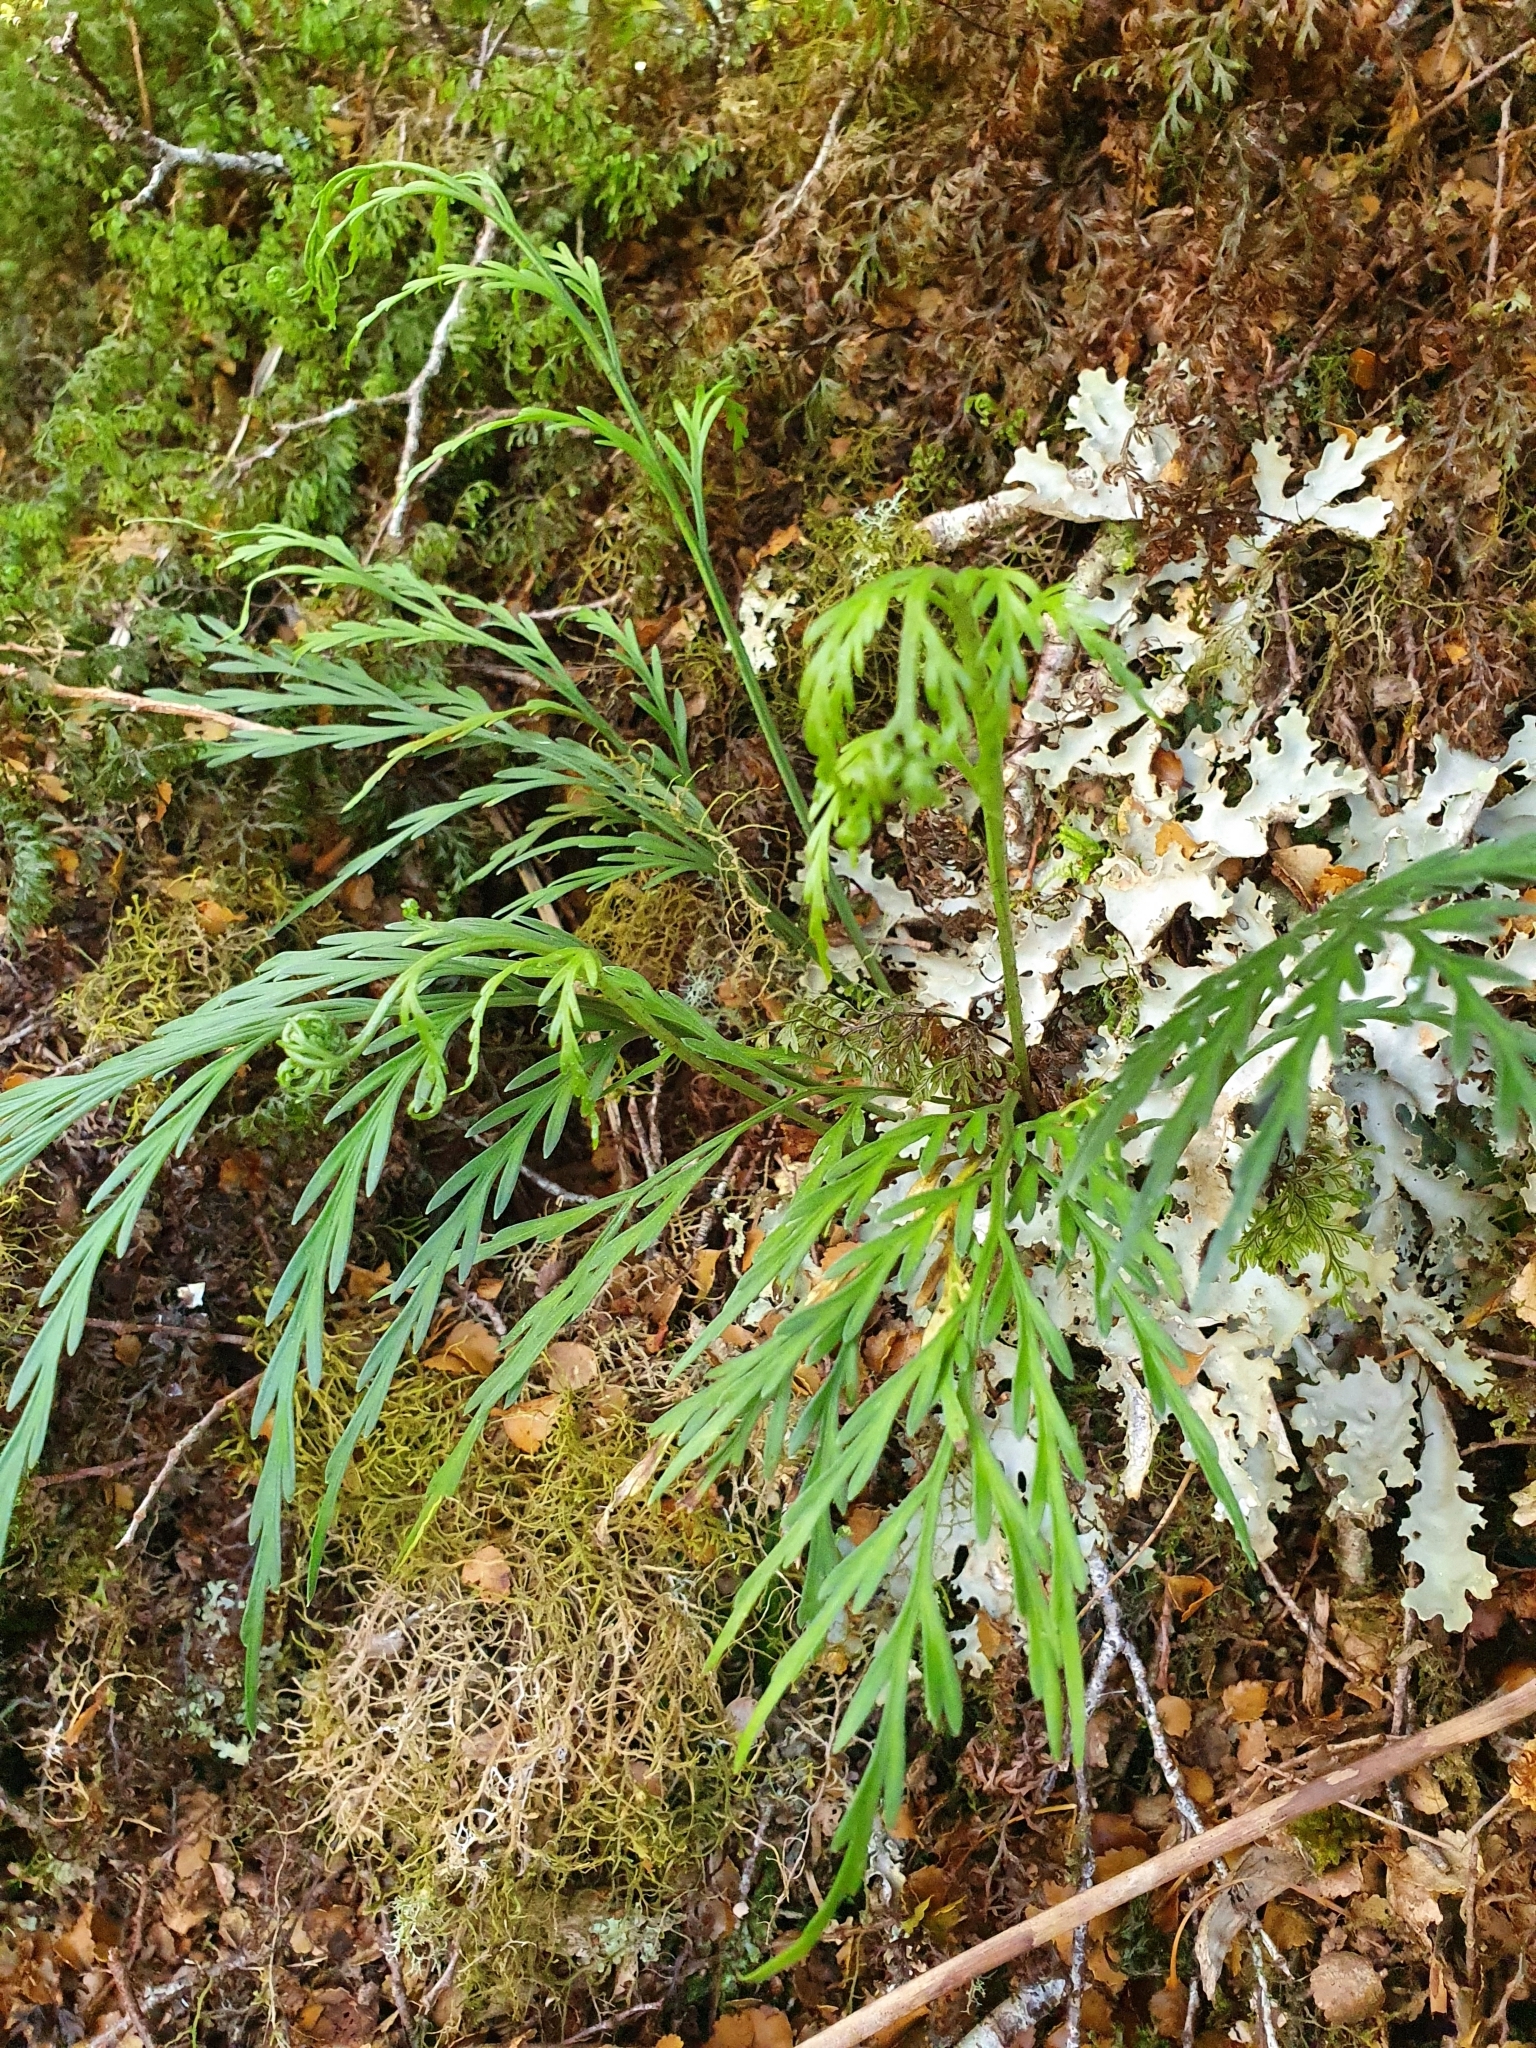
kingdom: Plantae
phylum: Tracheophyta
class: Polypodiopsida
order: Polypodiales
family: Aspleniaceae
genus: Asplenium
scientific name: Asplenium flaccidum
